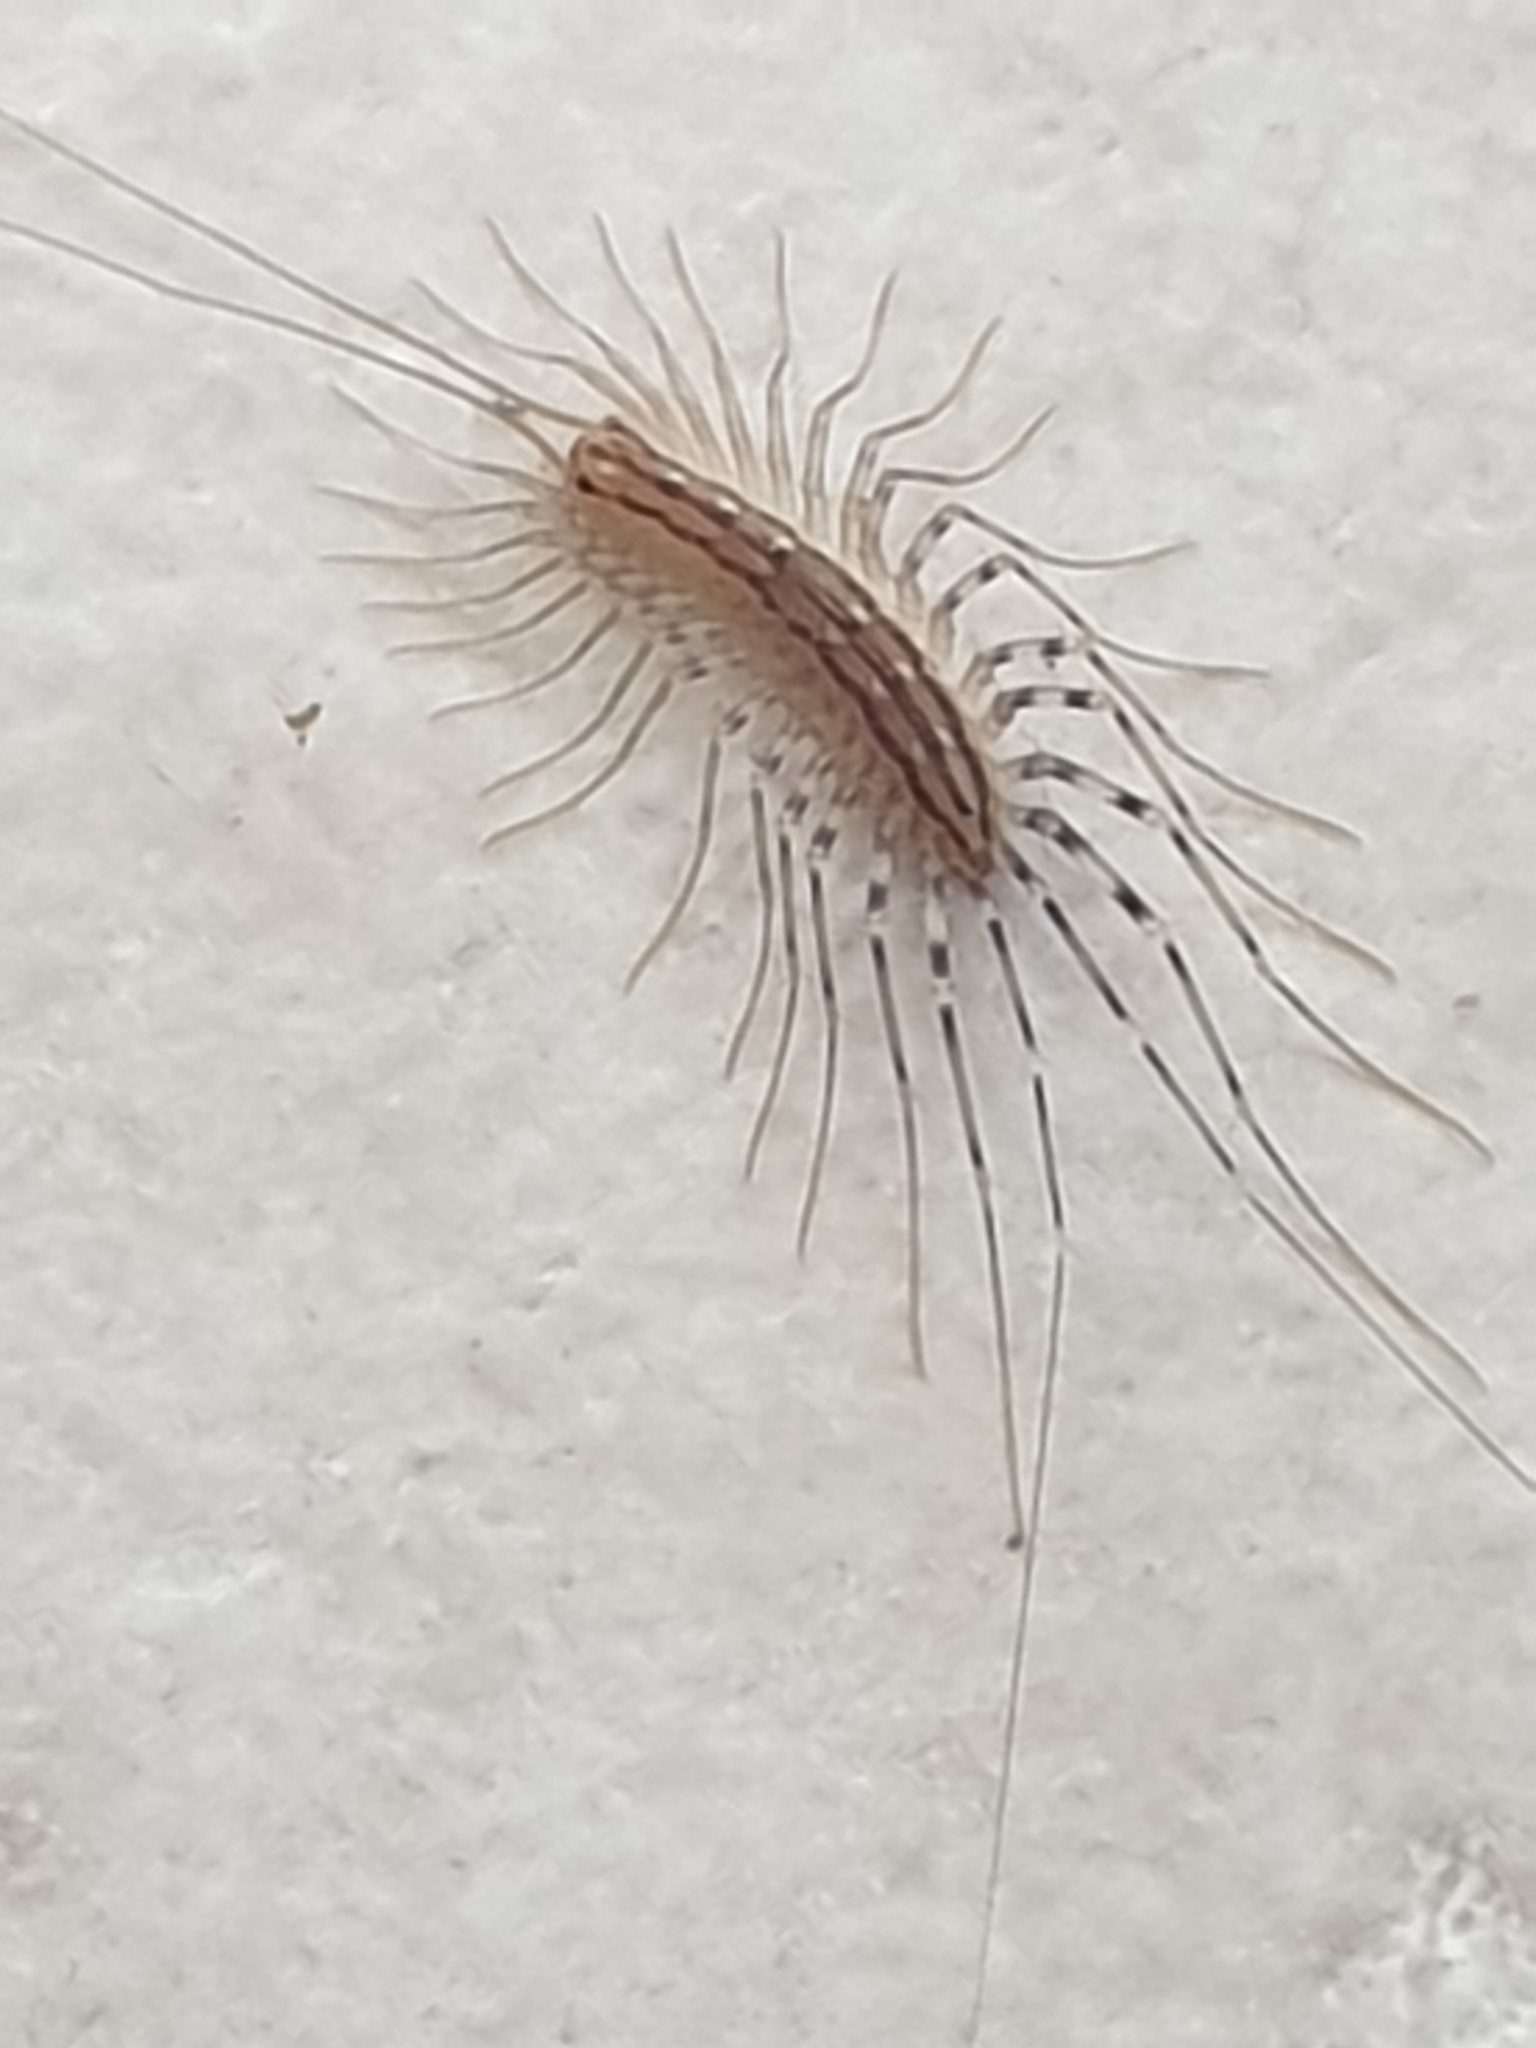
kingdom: Animalia
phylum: Arthropoda
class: Chilopoda
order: Scutigeromorpha
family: Scutigeridae
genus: Scutigera
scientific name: Scutigera coleoptrata
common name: House centipede
